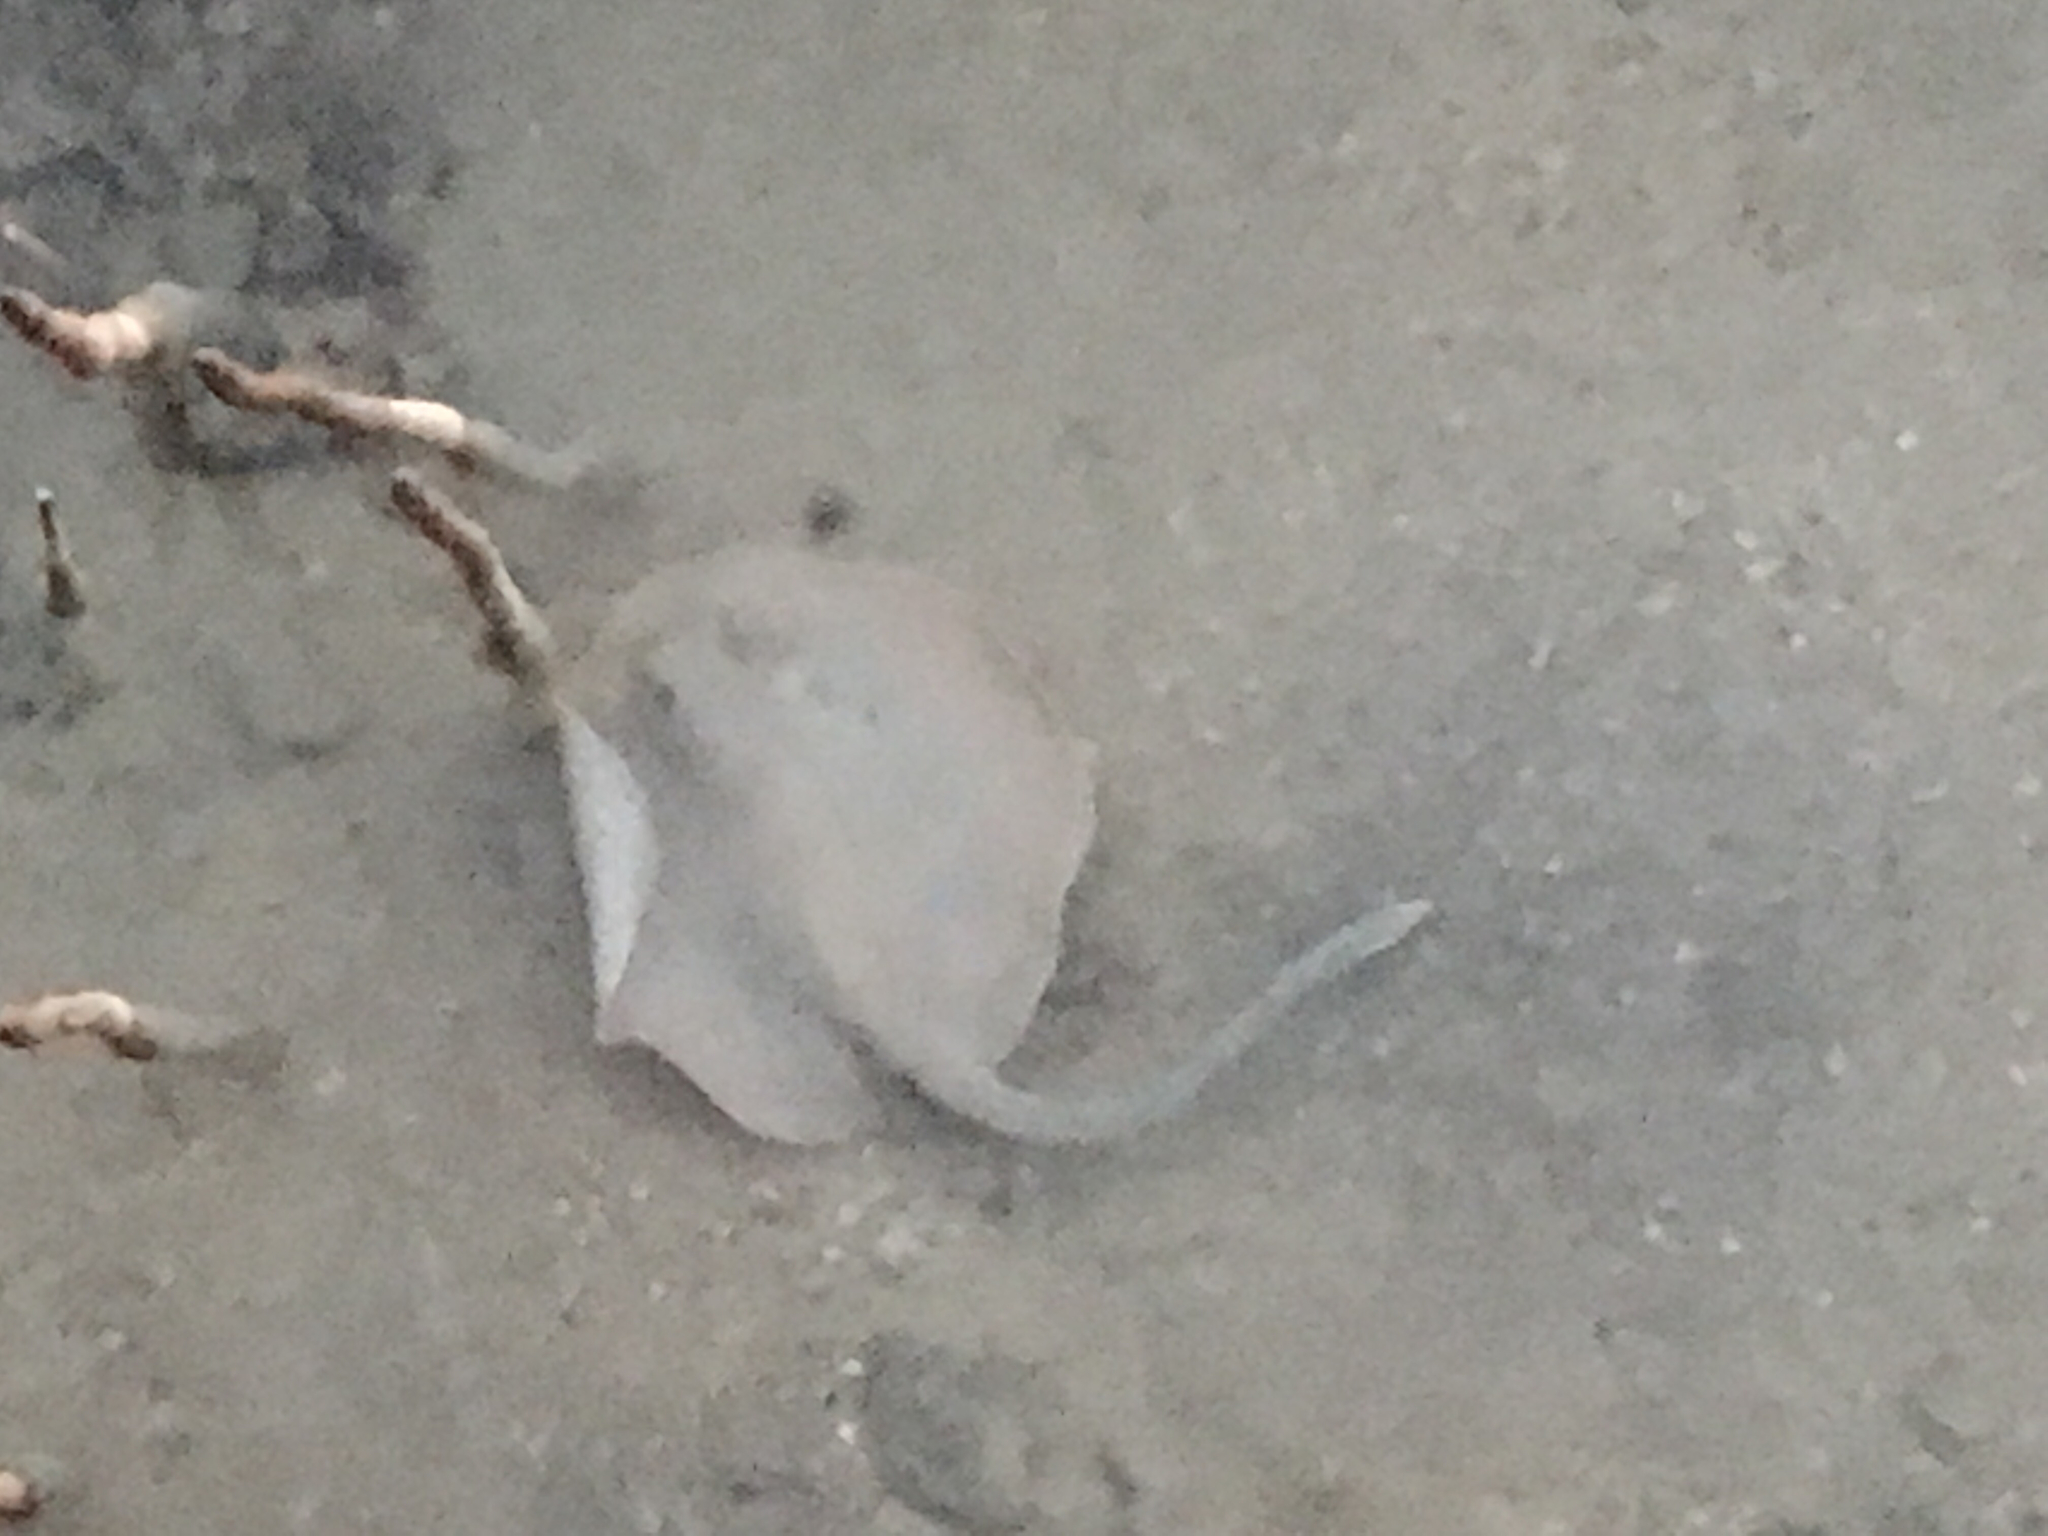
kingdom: Animalia
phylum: Chordata
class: Elasmobranchii
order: Myliobatiformes
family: Dasyatidae
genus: Taeniura
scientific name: Taeniura lymma
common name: Bluespotted ribbontail ray
